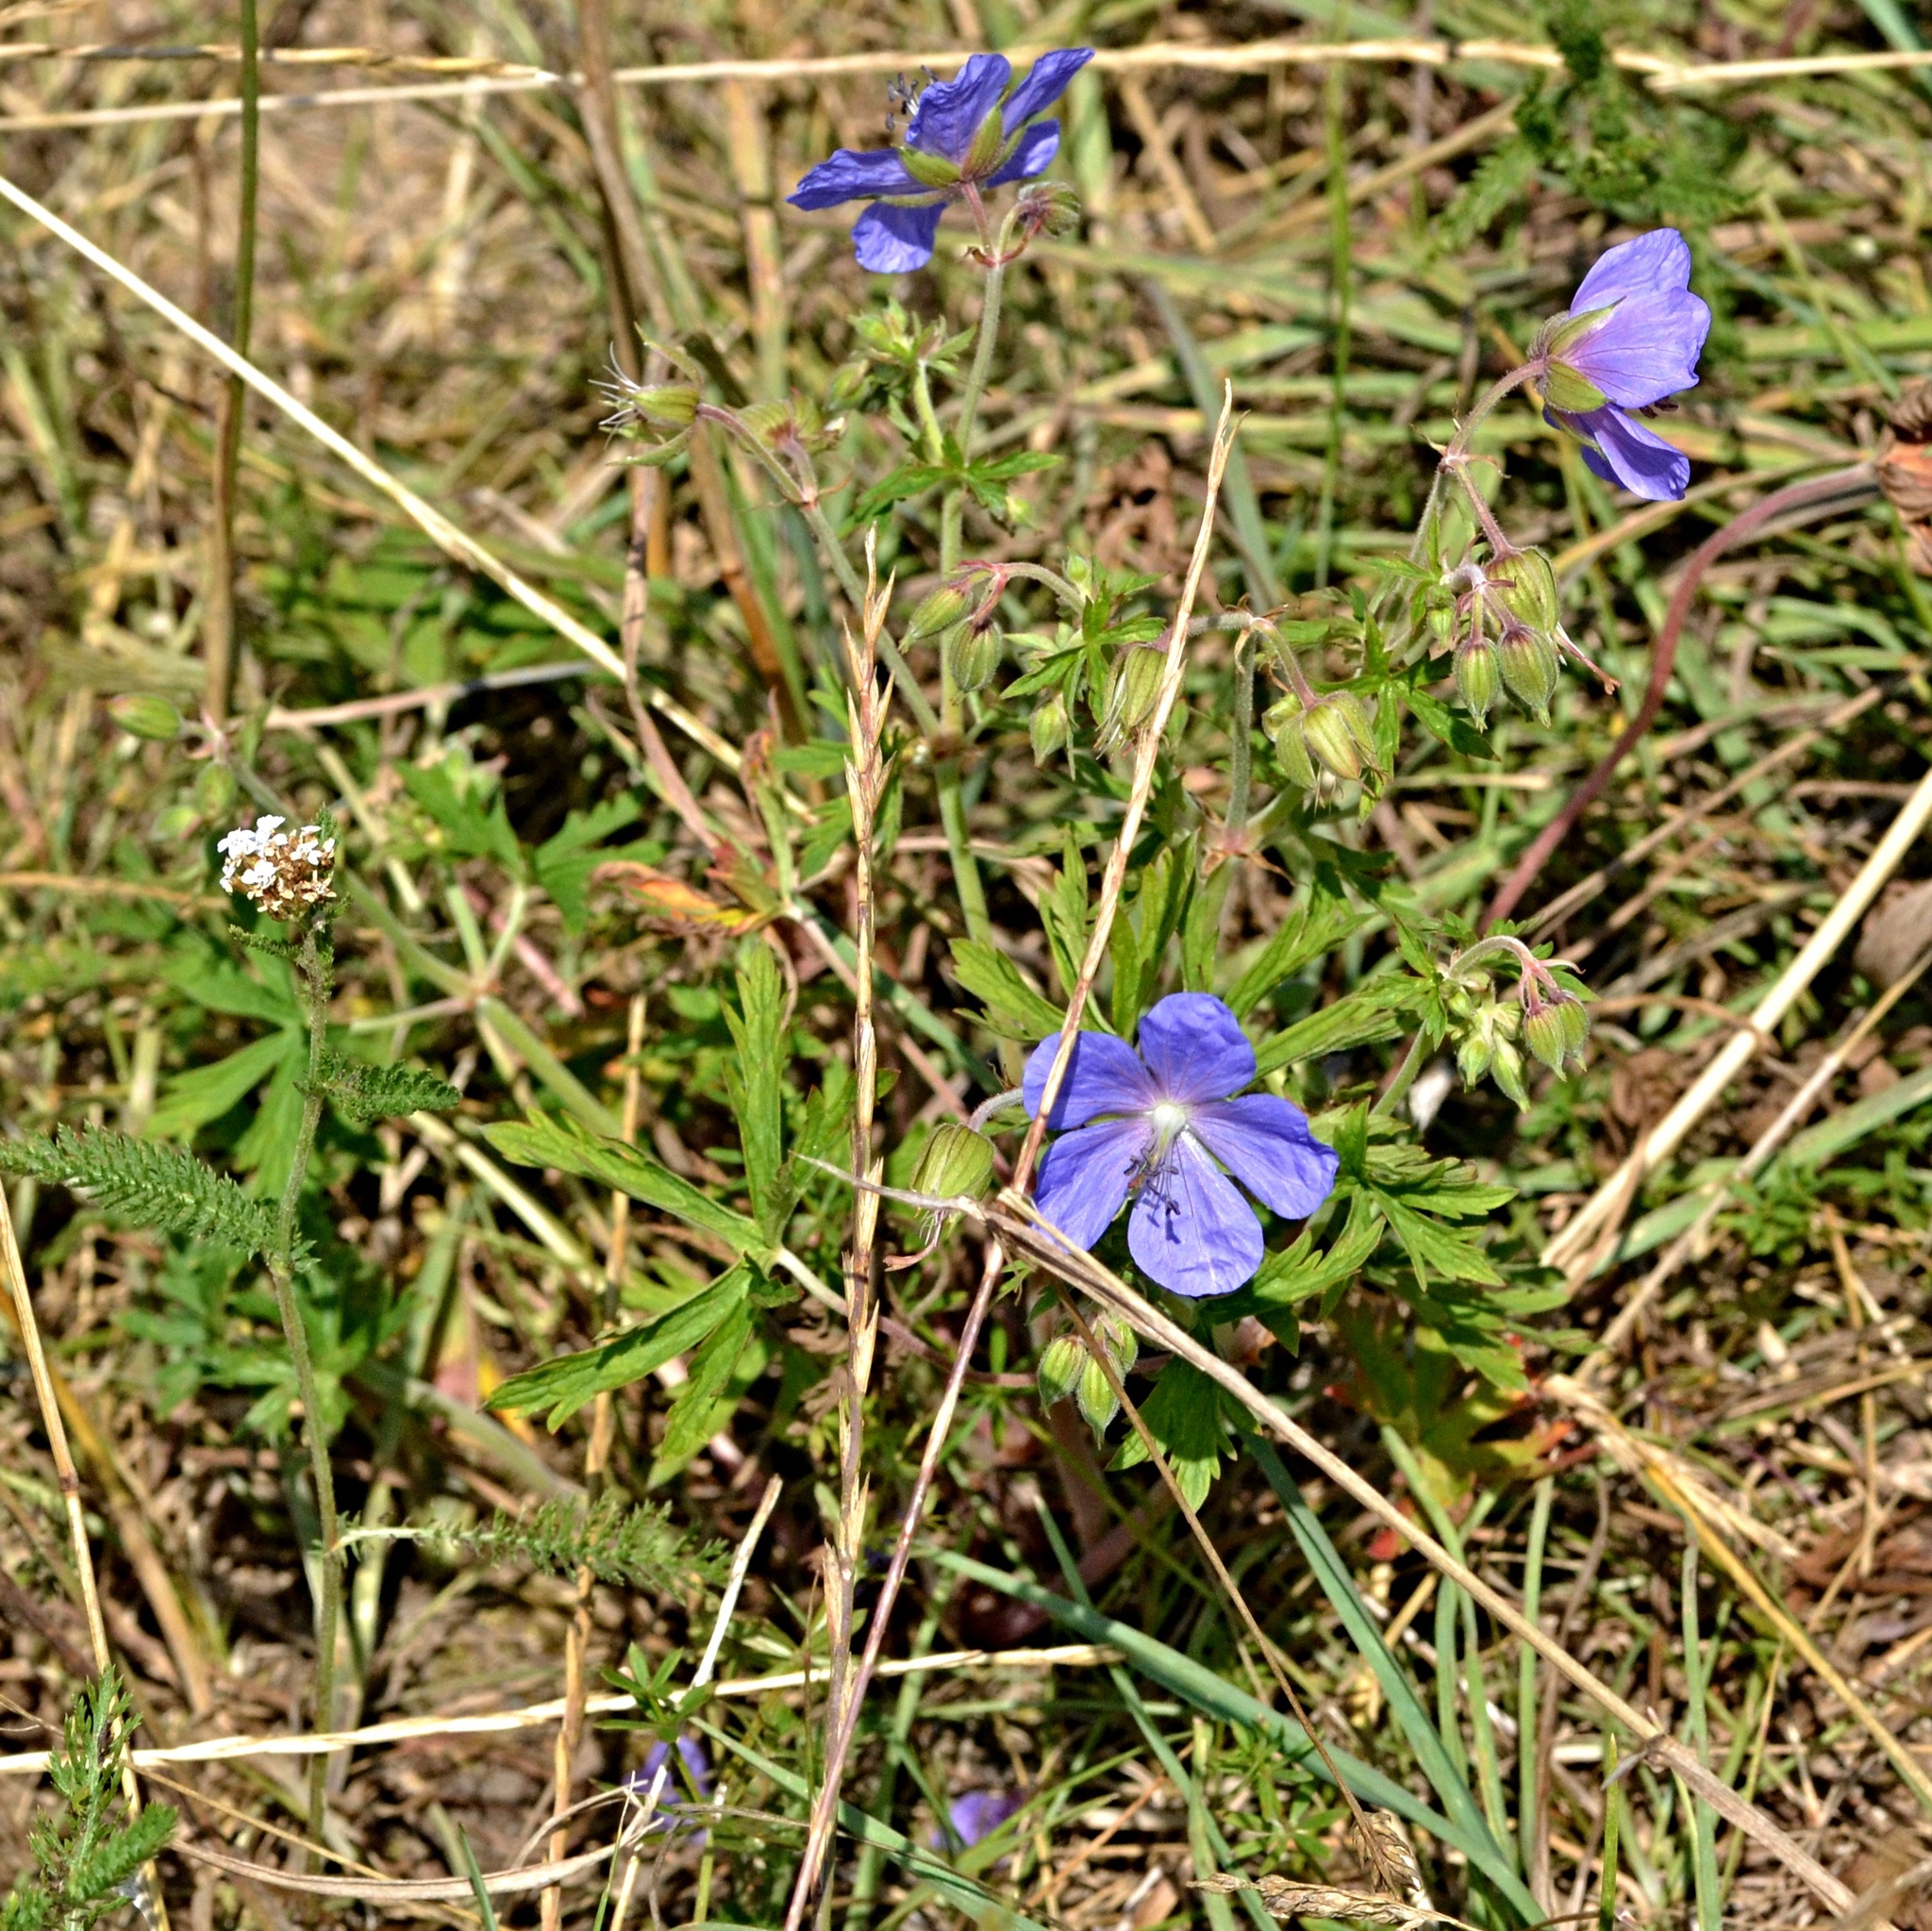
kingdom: Plantae
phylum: Tracheophyta
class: Magnoliopsida
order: Geraniales
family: Geraniaceae
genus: Geranium
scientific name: Geranium pratense
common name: Meadow crane's-bill
